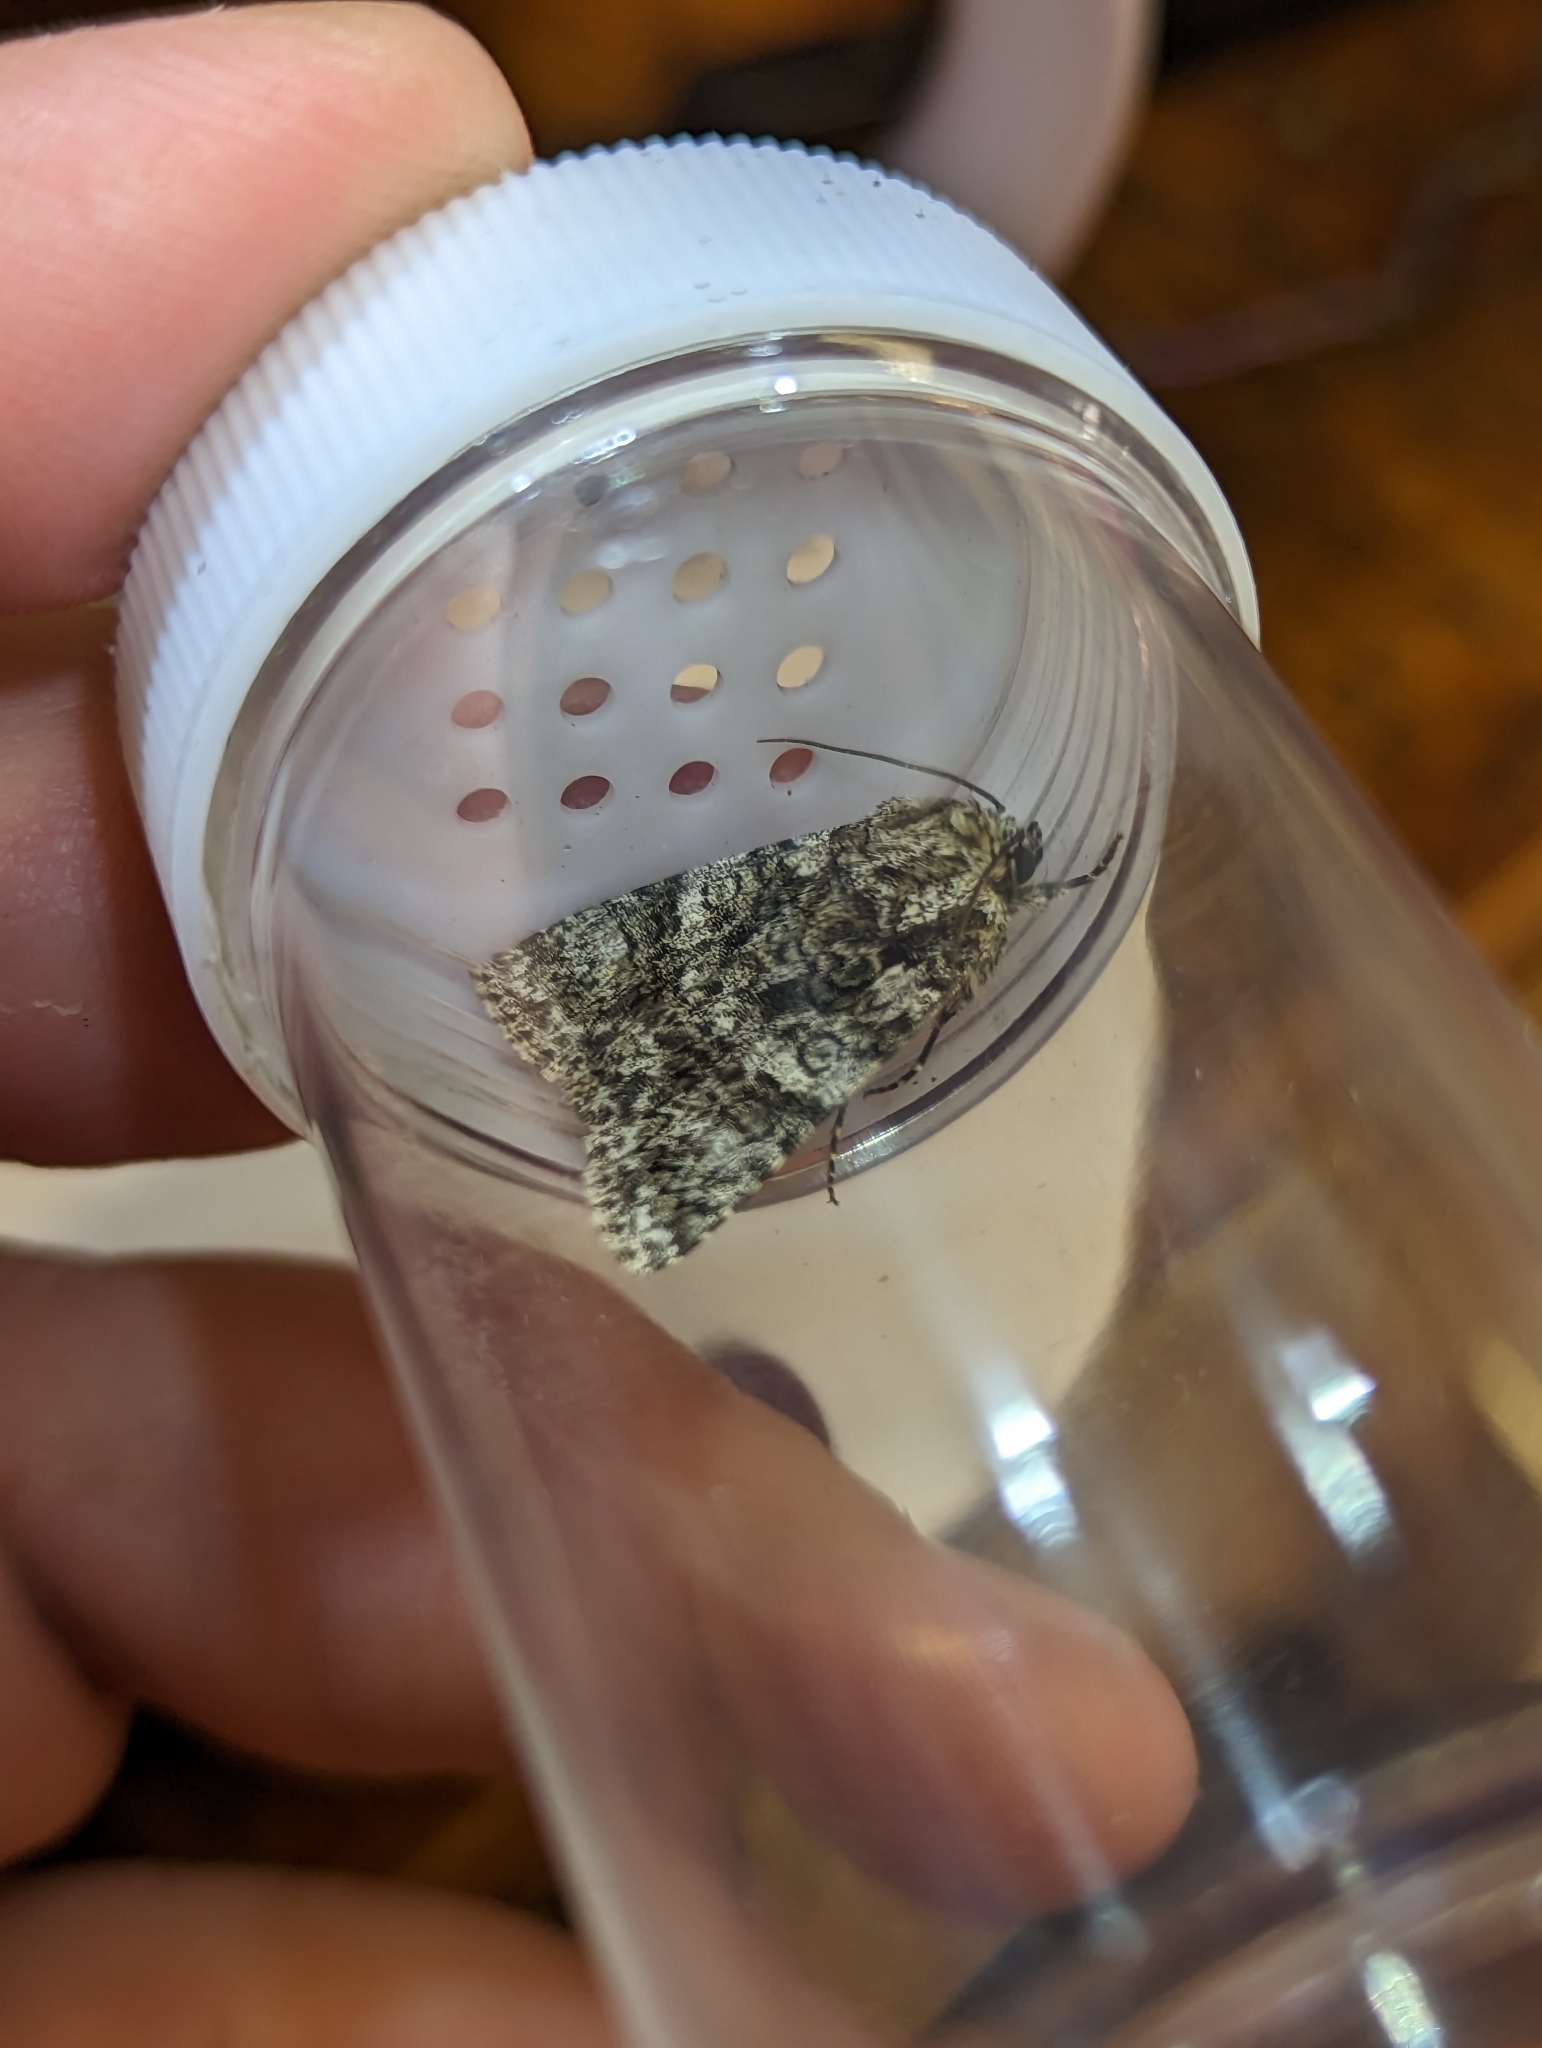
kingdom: Animalia
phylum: Arthropoda
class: Insecta
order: Lepidoptera
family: Noctuidae
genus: Acronicta
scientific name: Acronicta rumicis
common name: Knot grass
